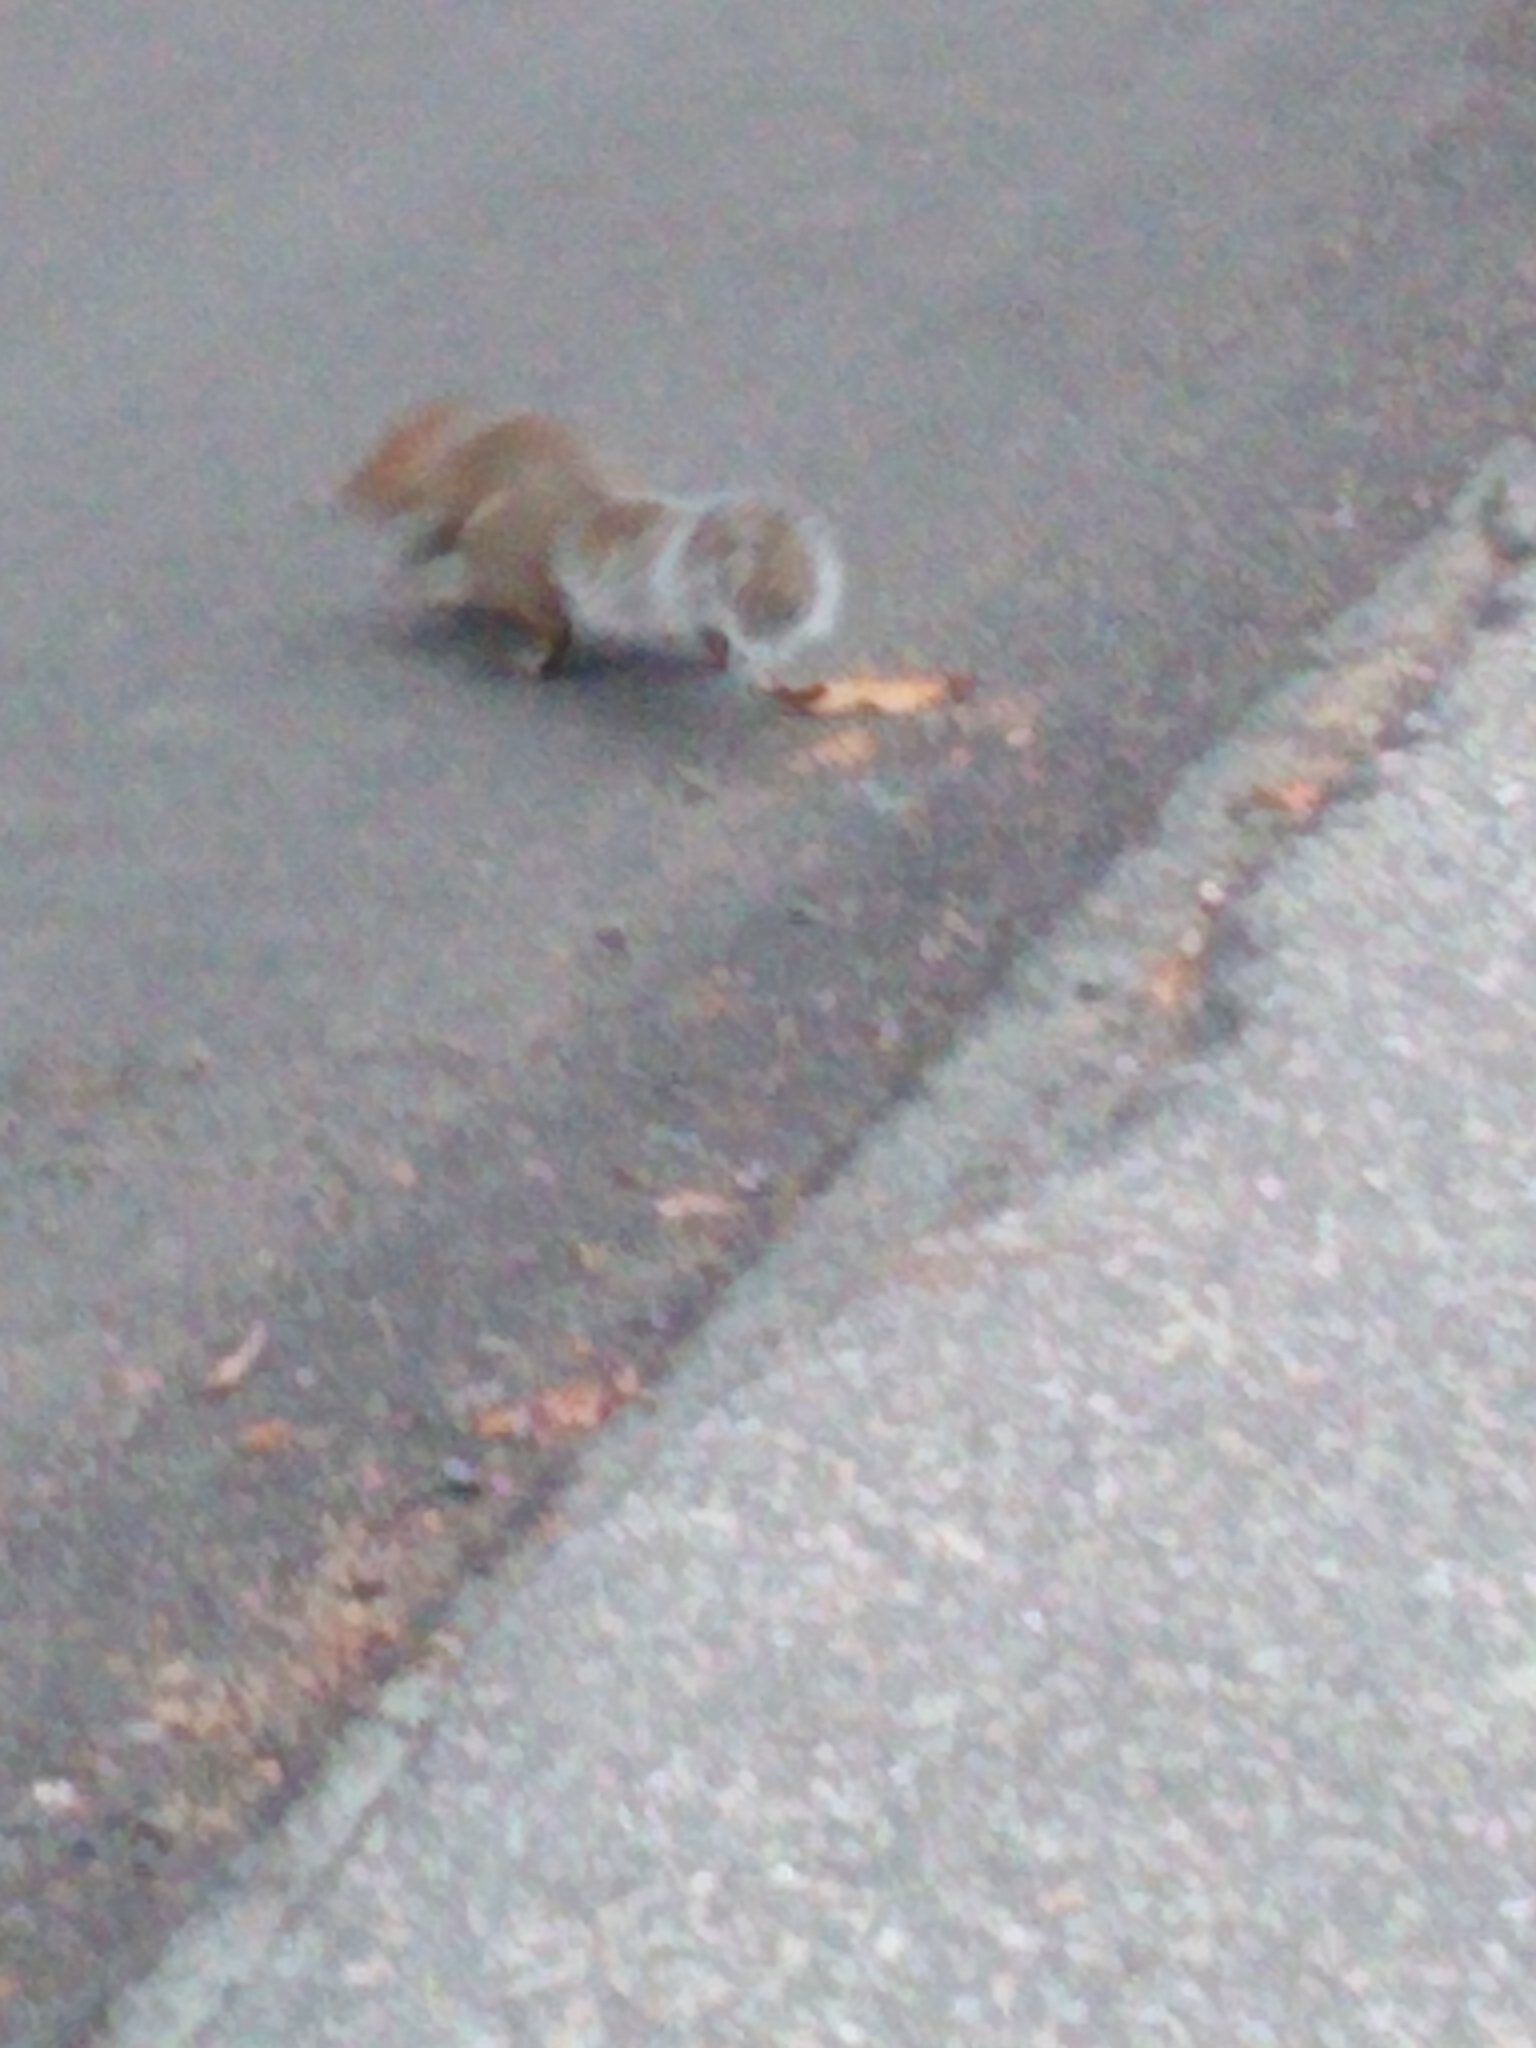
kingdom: Animalia
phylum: Chordata
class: Mammalia
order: Rodentia
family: Sciuridae
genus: Sciurus
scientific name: Sciurus carolinensis
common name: Eastern gray squirrel
